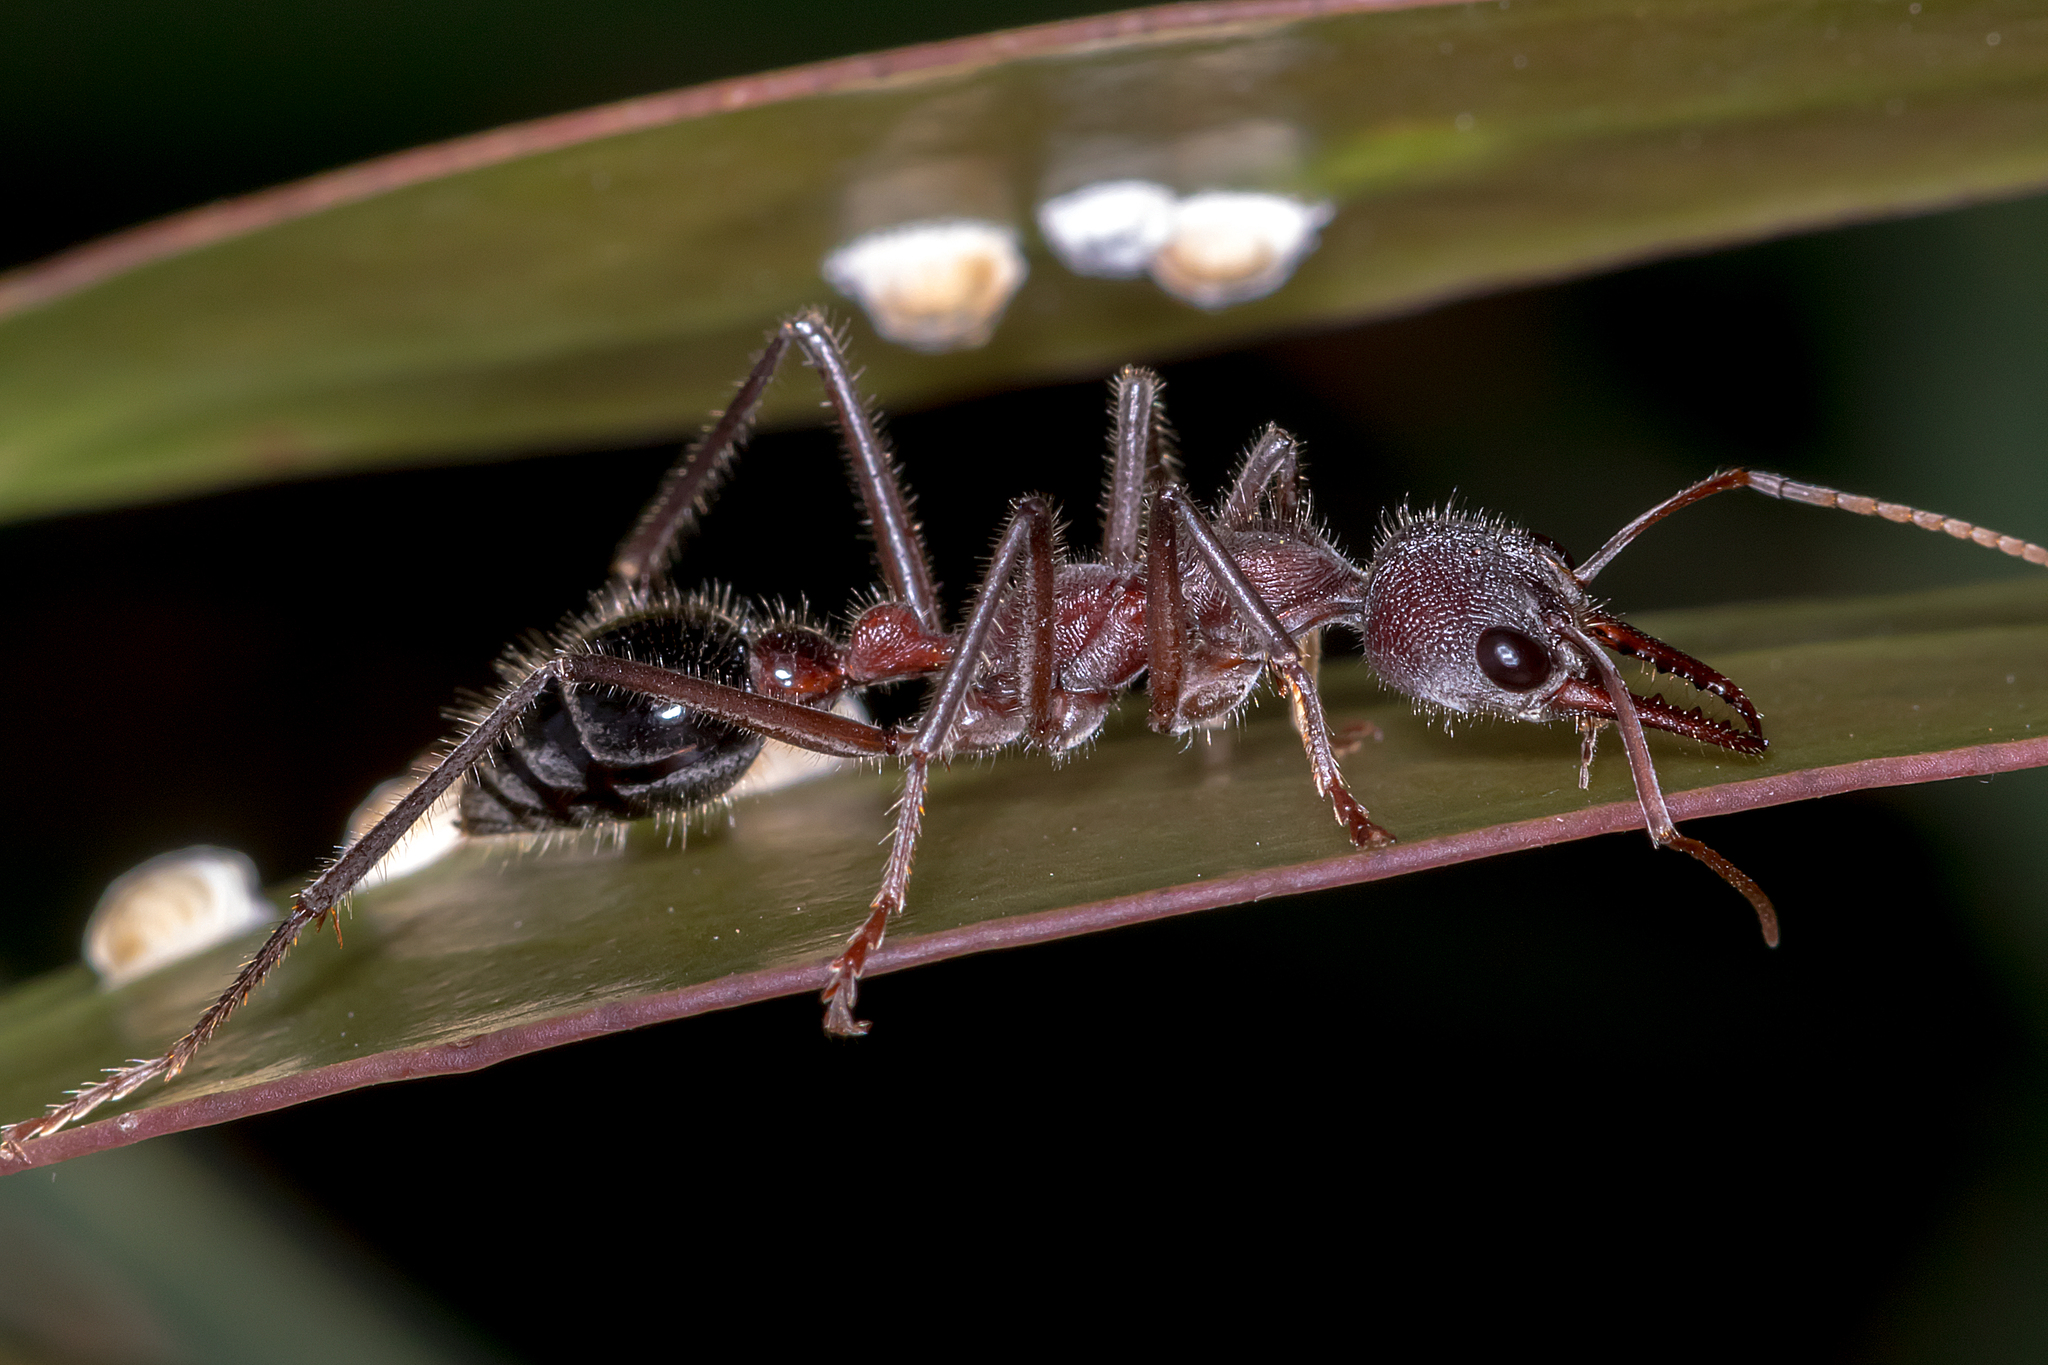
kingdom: Animalia
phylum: Arthropoda
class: Insecta
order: Hymenoptera
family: Formicidae
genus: Myrmecia
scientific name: Myrmecia simillima
